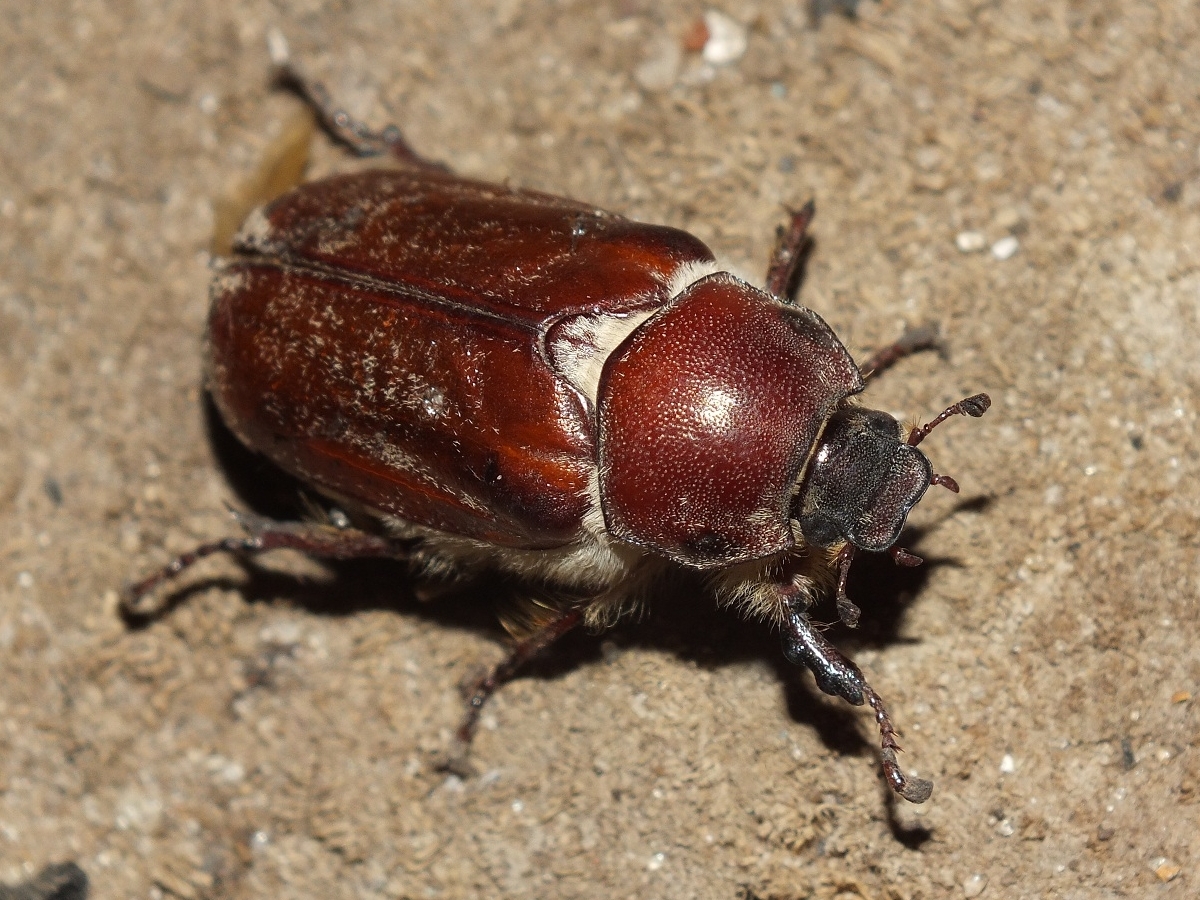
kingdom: Animalia
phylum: Arthropoda
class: Insecta
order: Coleoptera
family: Scarabaeidae
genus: Anoxia
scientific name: Anoxia pilosa
